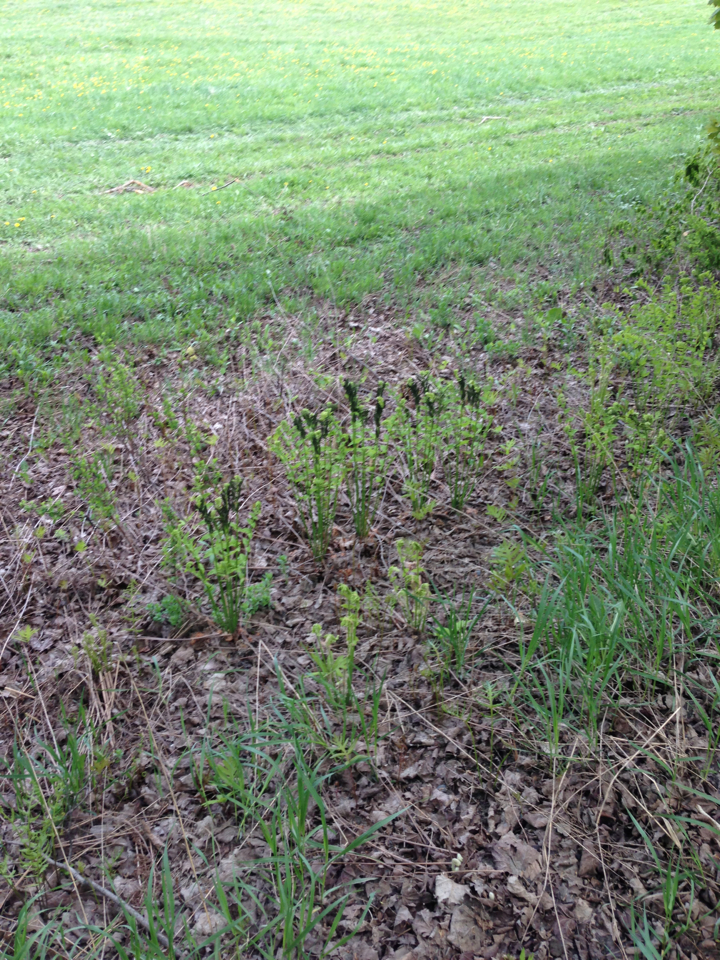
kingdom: Plantae
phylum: Tracheophyta
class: Polypodiopsida
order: Osmundales
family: Osmundaceae
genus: Claytosmunda
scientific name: Claytosmunda claytoniana
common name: Clayton's fern
